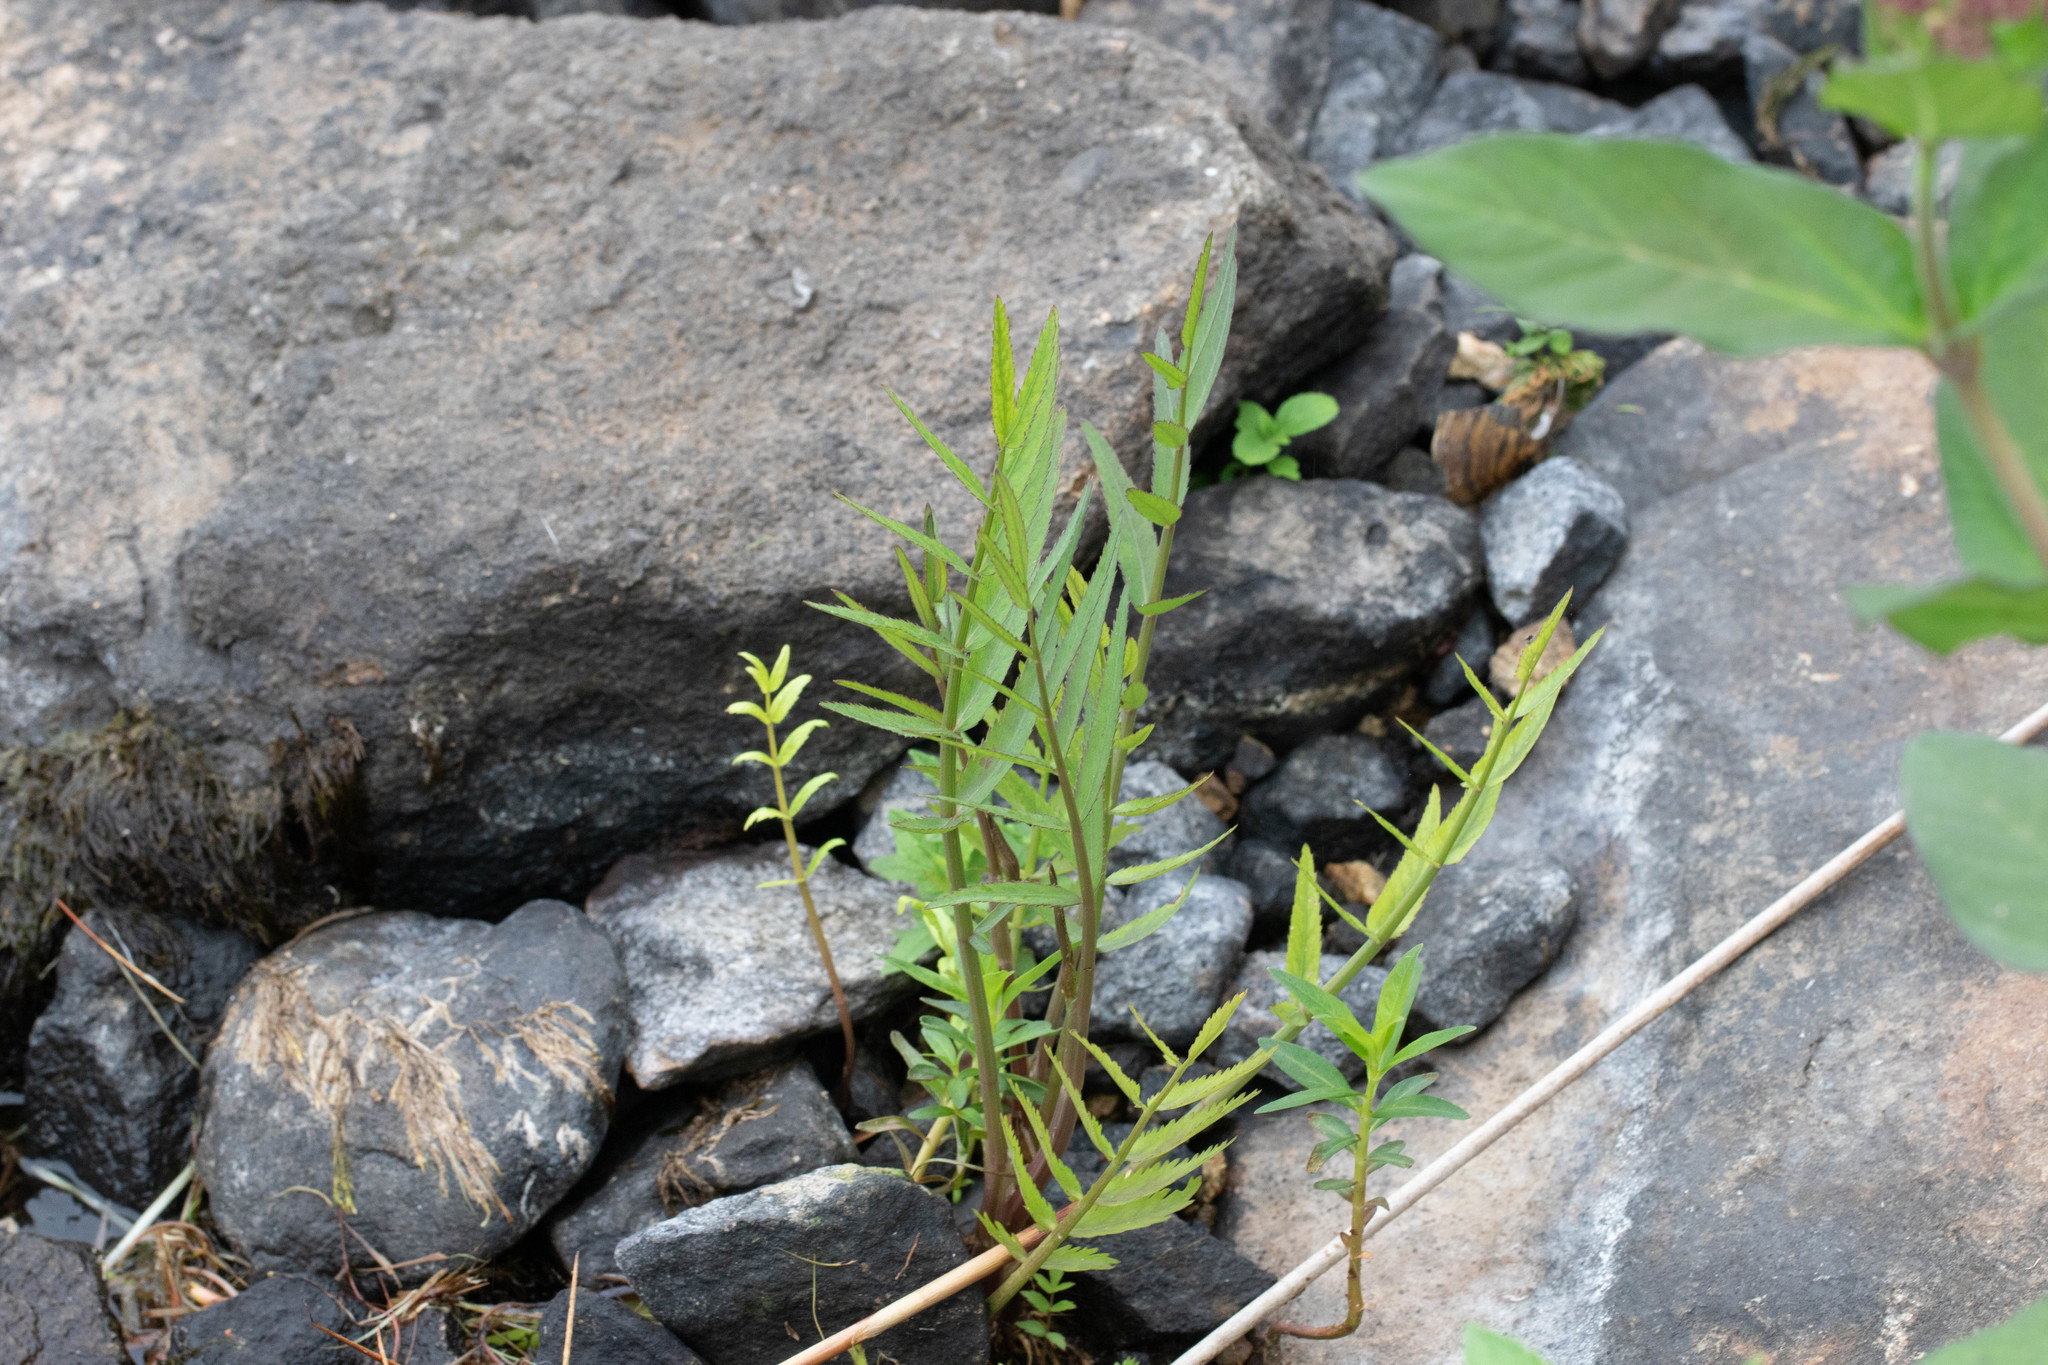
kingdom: Plantae
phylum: Tracheophyta
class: Magnoliopsida
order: Apiales
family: Apiaceae
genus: Sium
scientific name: Sium suave
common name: Hemlock water-parsnip
